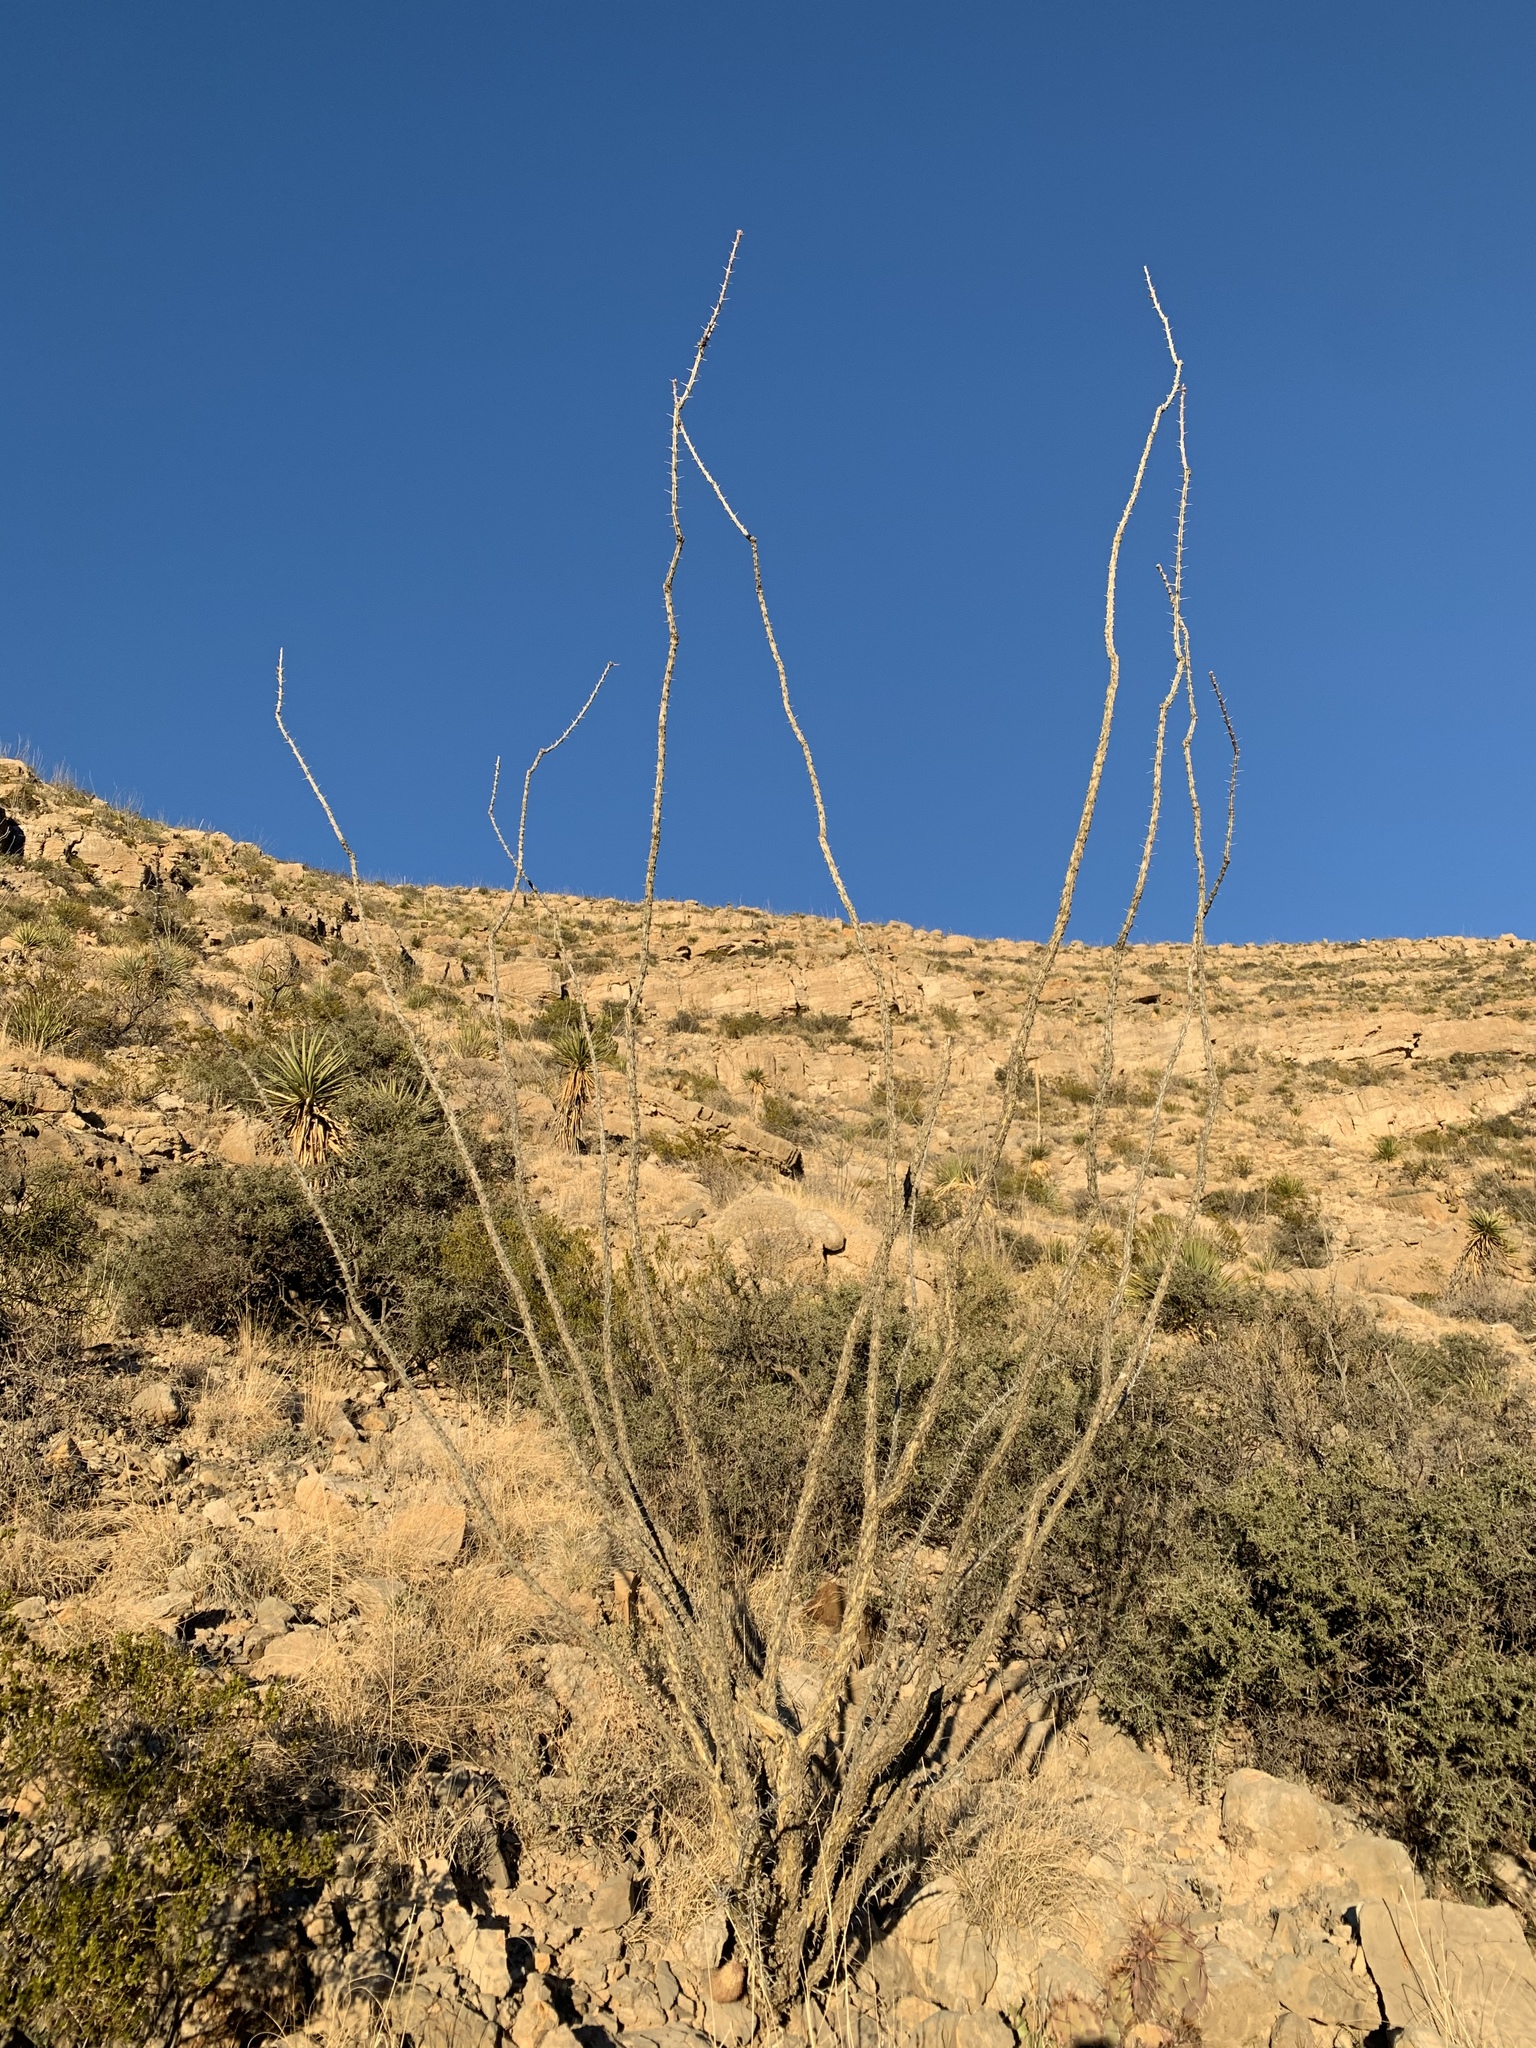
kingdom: Plantae
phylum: Tracheophyta
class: Magnoliopsida
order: Ericales
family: Fouquieriaceae
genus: Fouquieria
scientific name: Fouquieria splendens
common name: Vine-cactus
